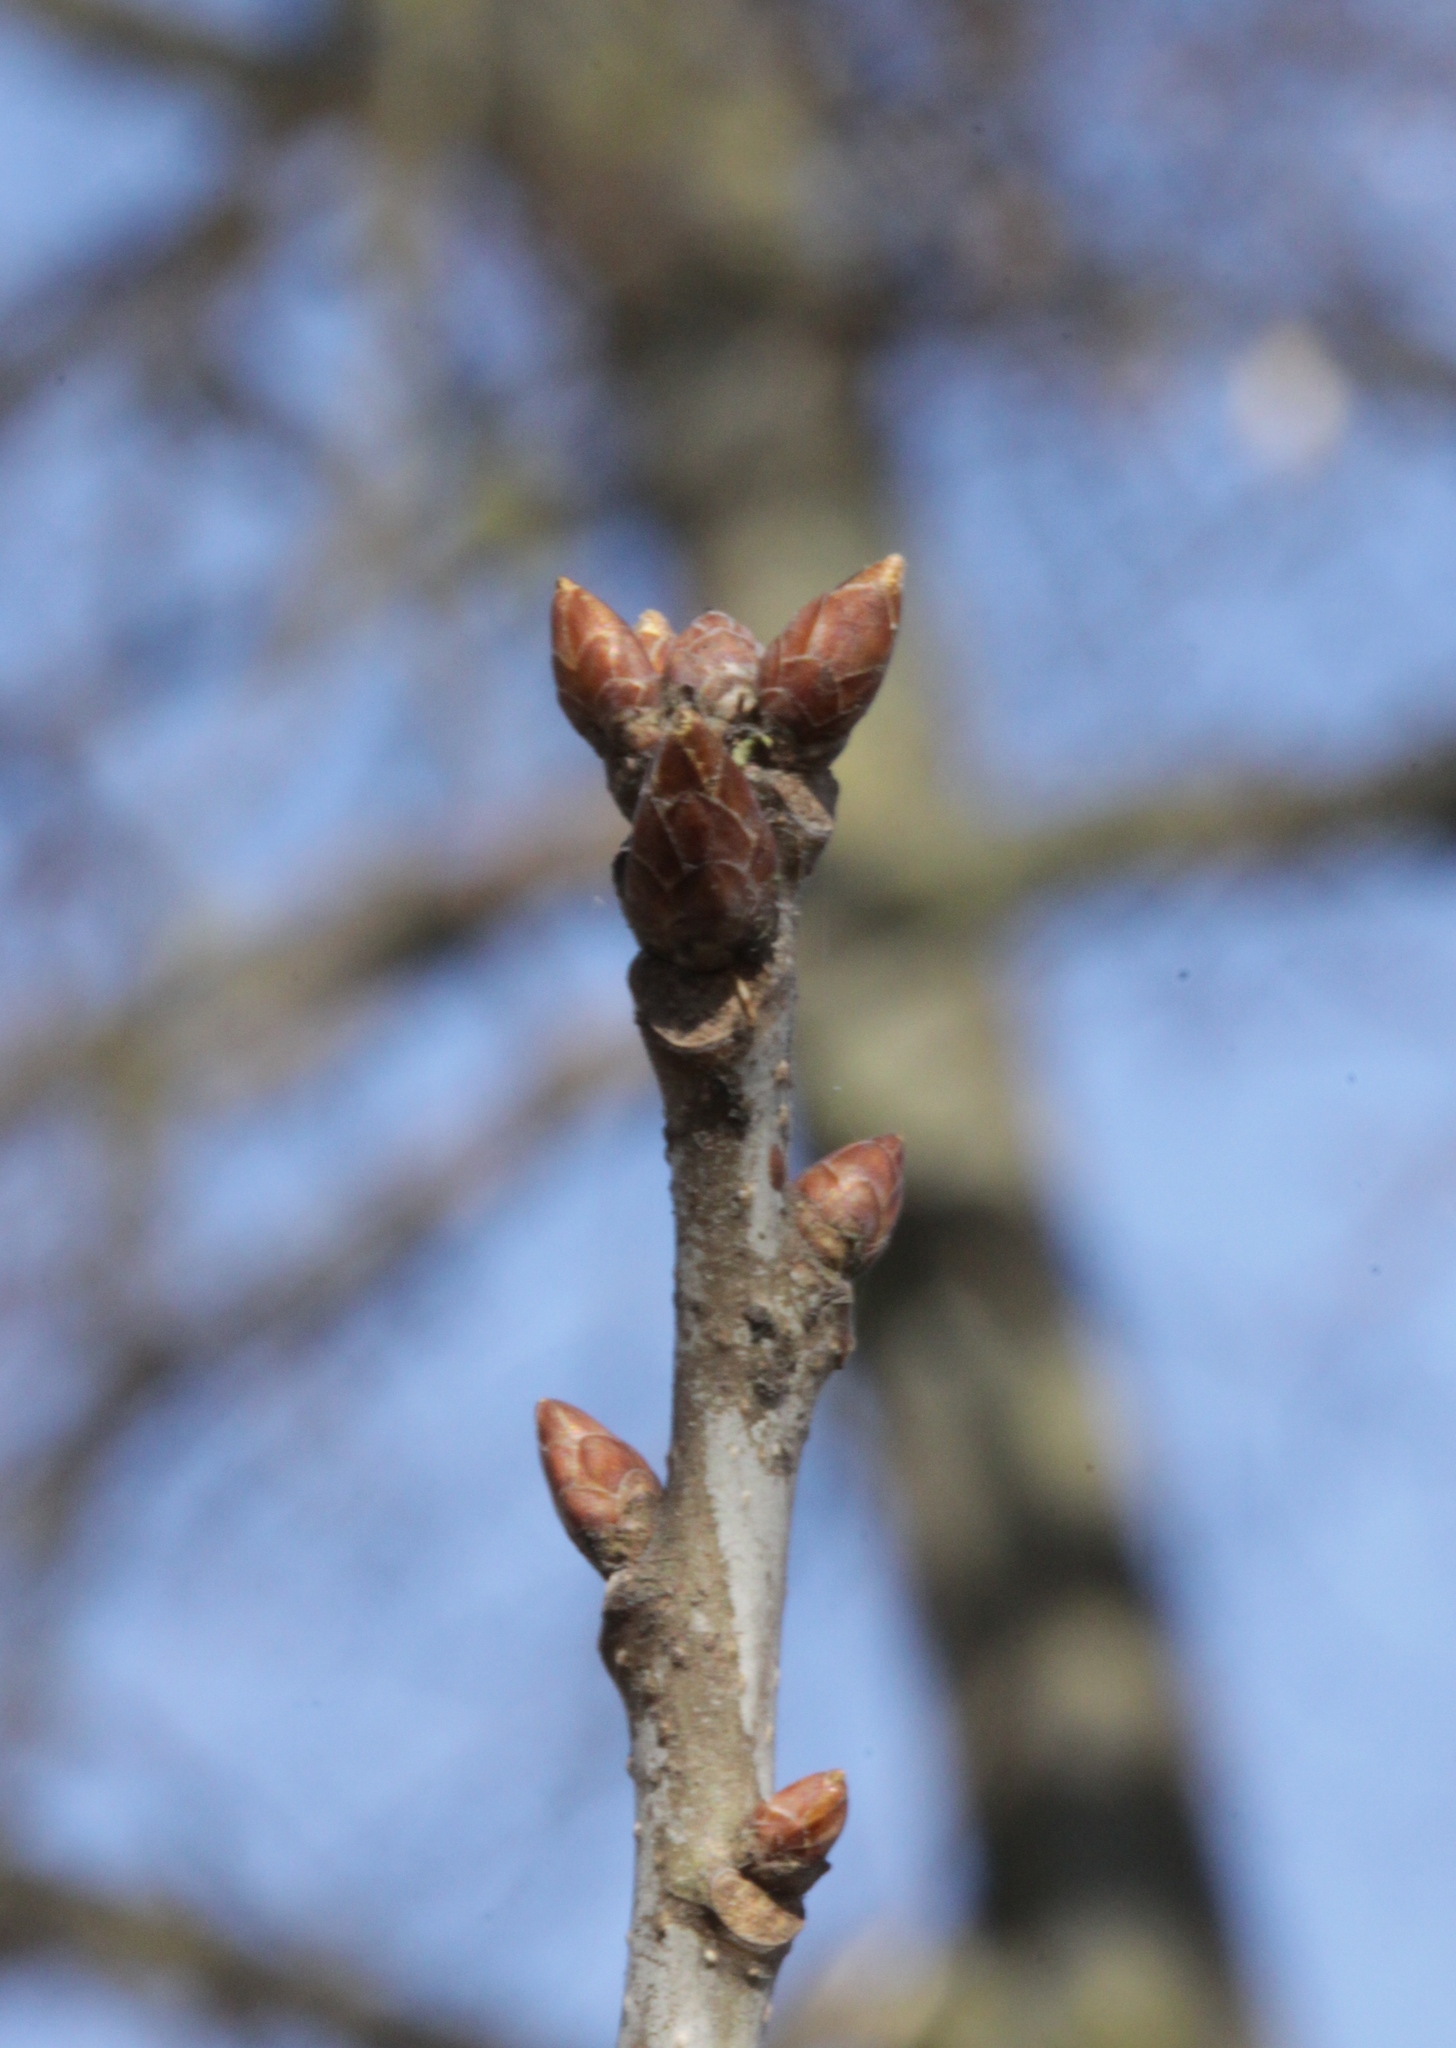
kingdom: Plantae
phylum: Tracheophyta
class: Magnoliopsida
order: Fagales
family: Fagaceae
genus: Quercus
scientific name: Quercus robur
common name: Pedunculate oak
